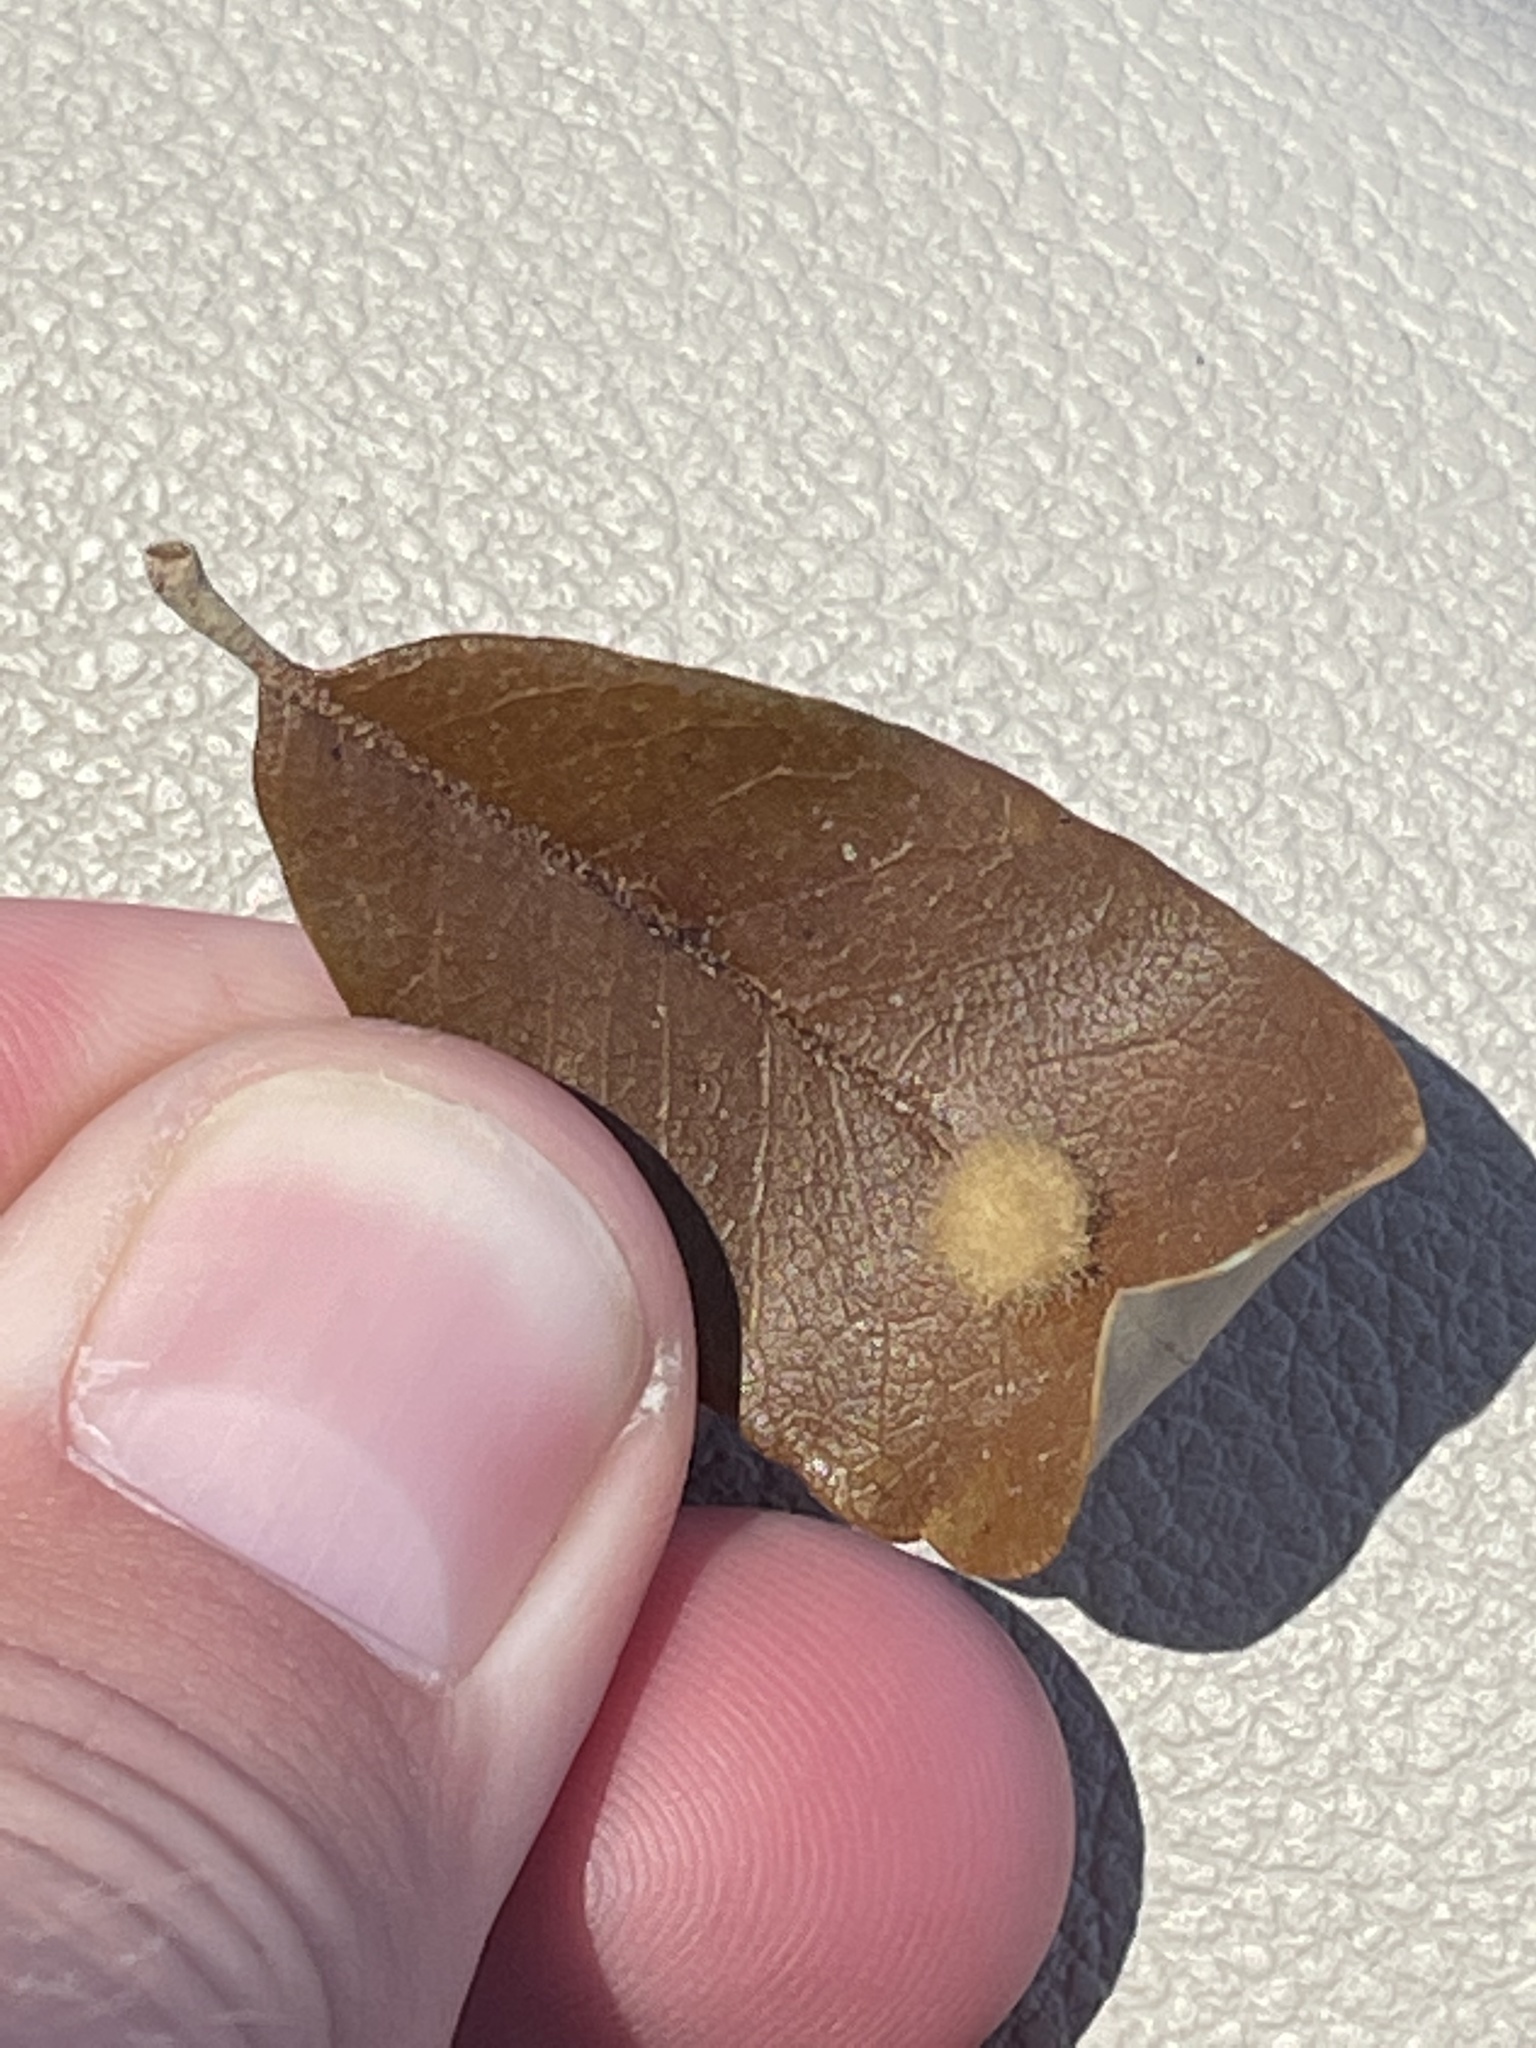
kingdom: Animalia
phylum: Arthropoda
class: Insecta
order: Hymenoptera
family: Cynipidae
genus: Andricus
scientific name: Andricus Druon quercuslanigerum
